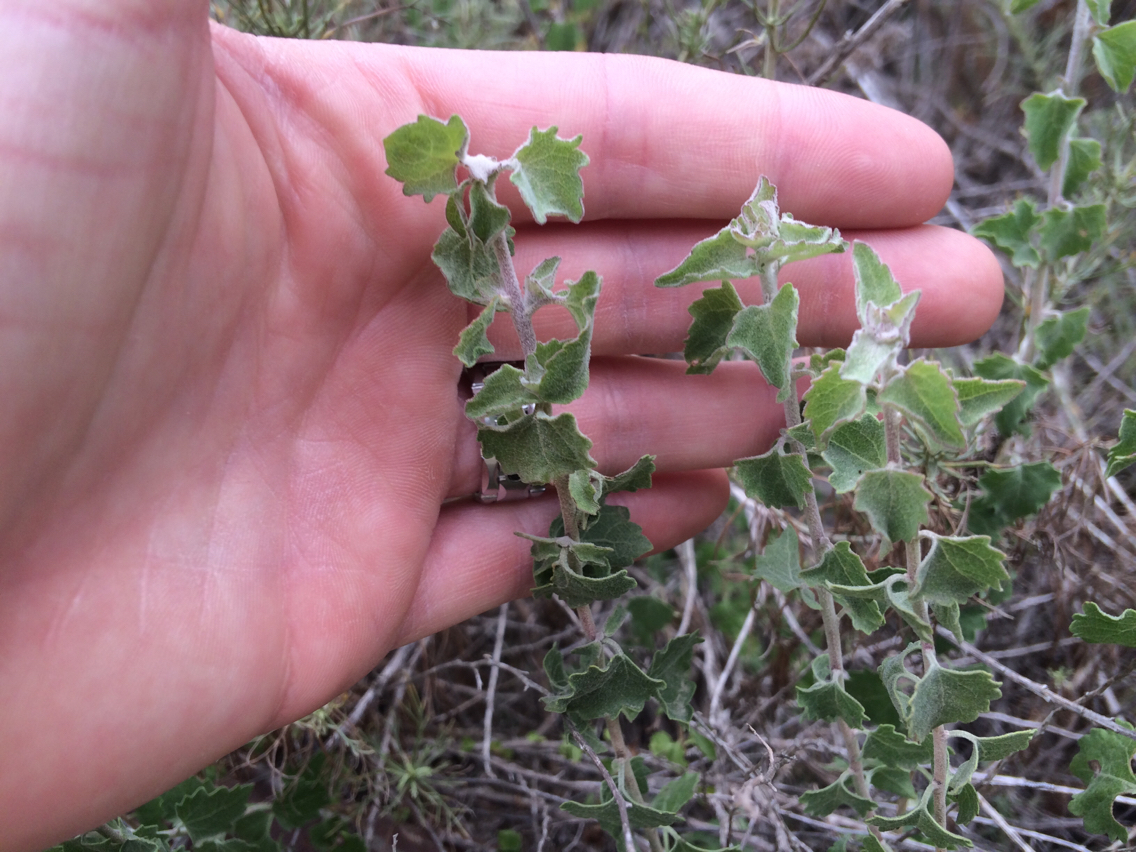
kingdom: Plantae
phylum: Tracheophyta
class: Magnoliopsida
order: Asterales
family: Asteraceae
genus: Brickellia
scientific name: Brickellia californica
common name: California brickellbush
